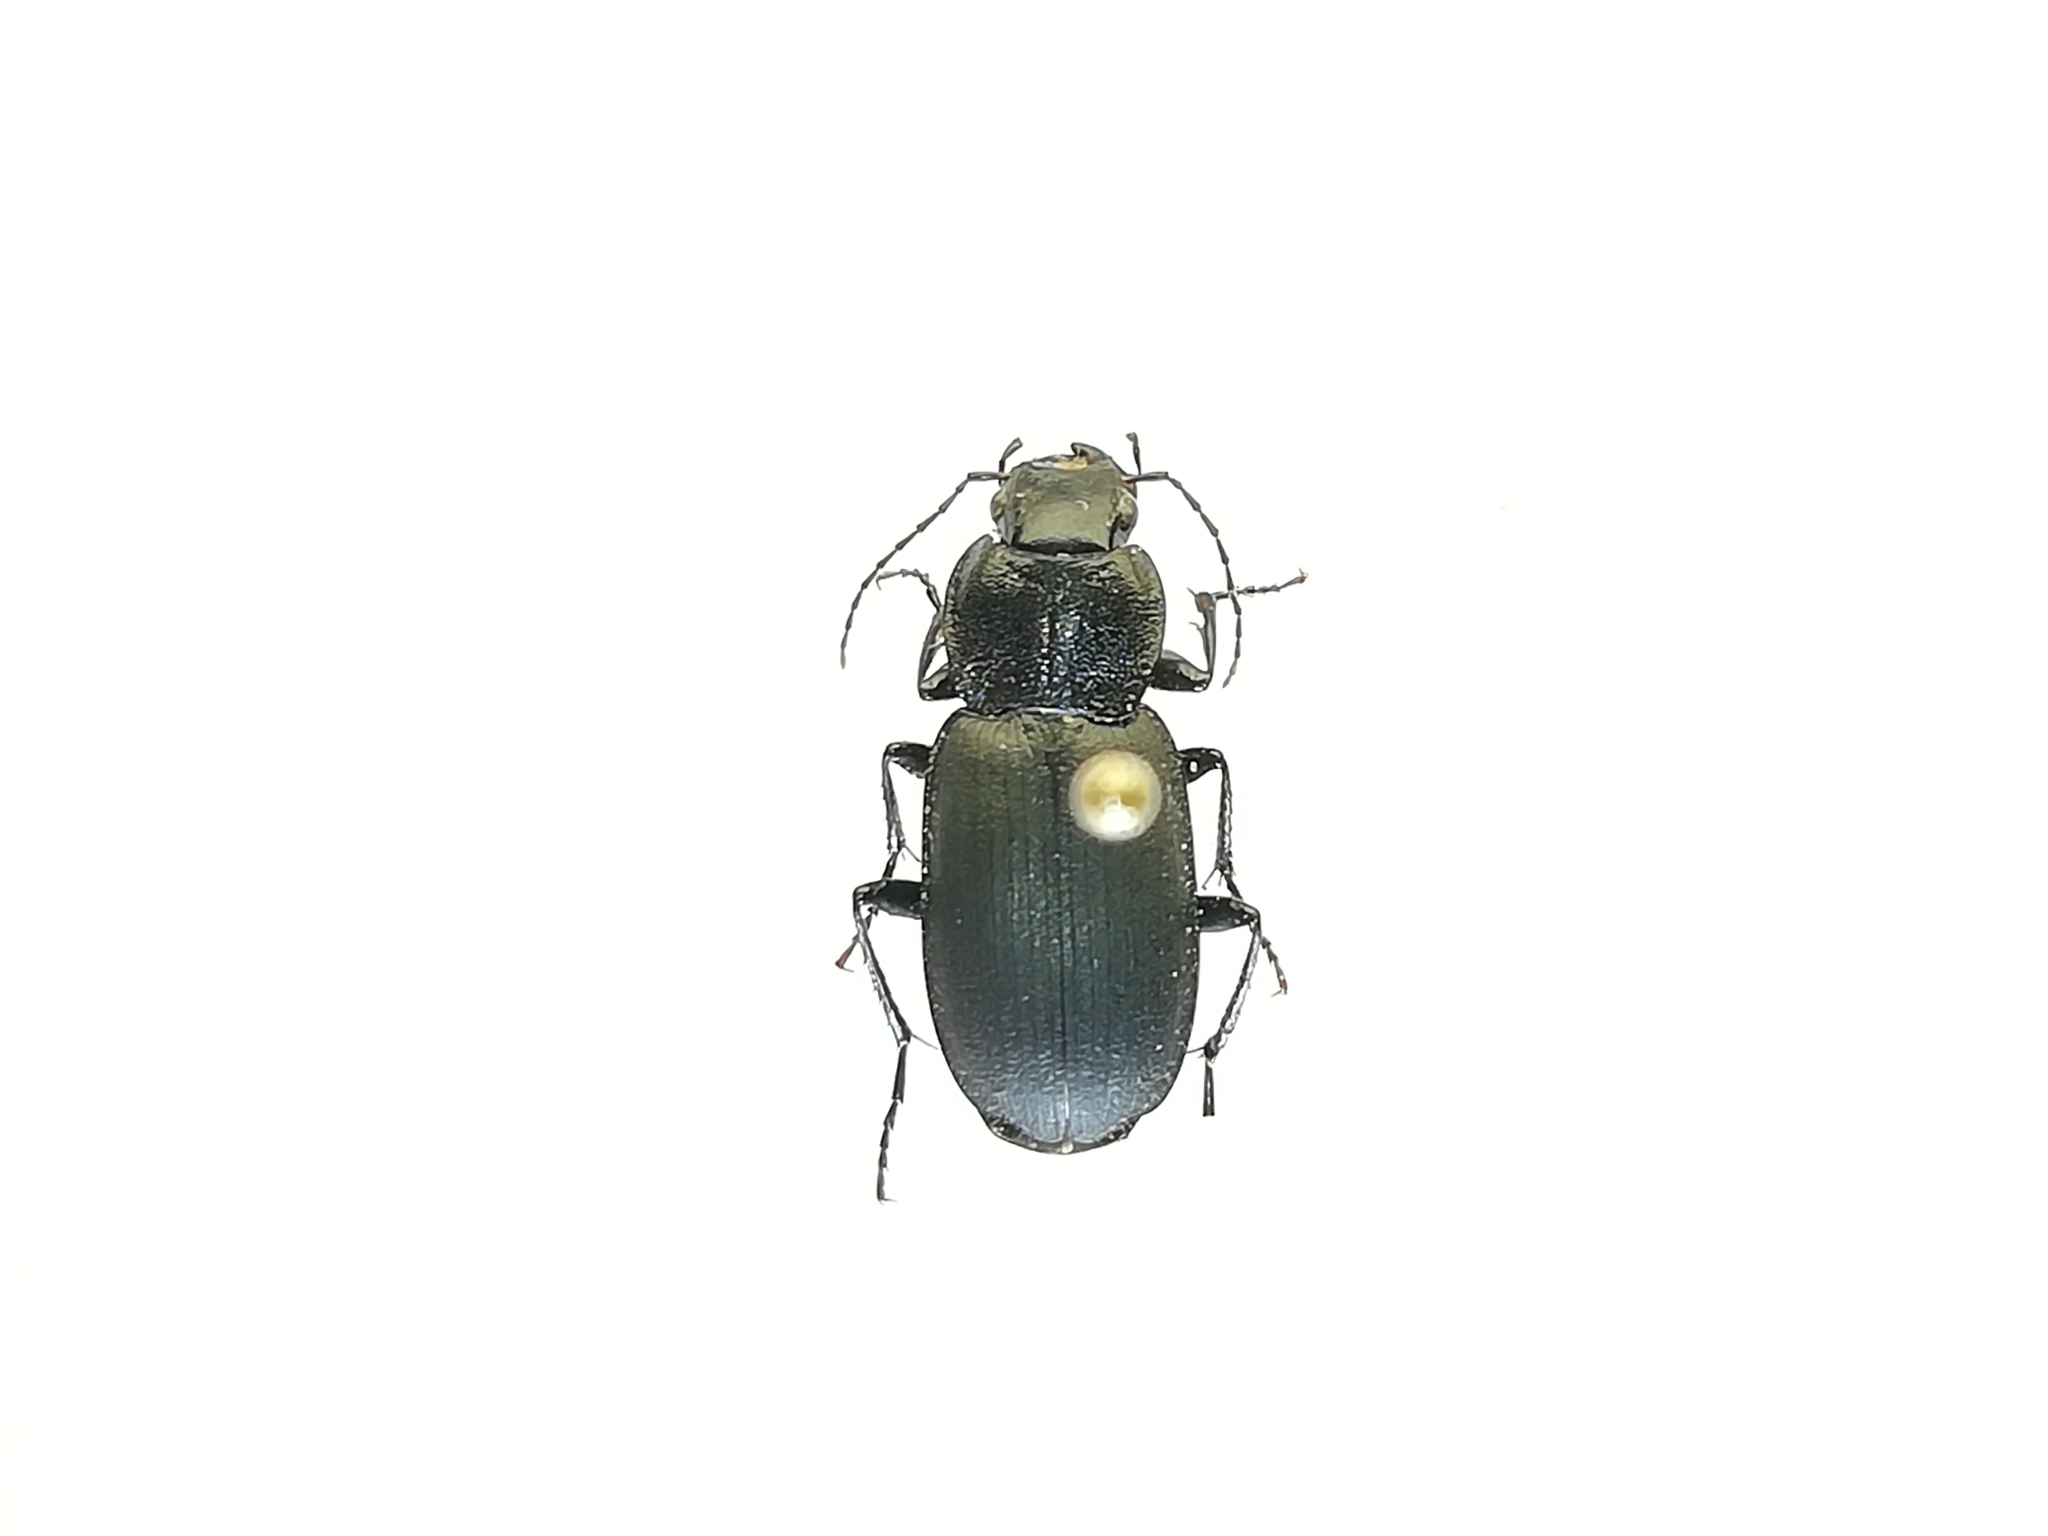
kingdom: Animalia
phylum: Arthropoda
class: Insecta
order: Coleoptera
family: Carabidae
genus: Licinus
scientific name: Licinus depressus
